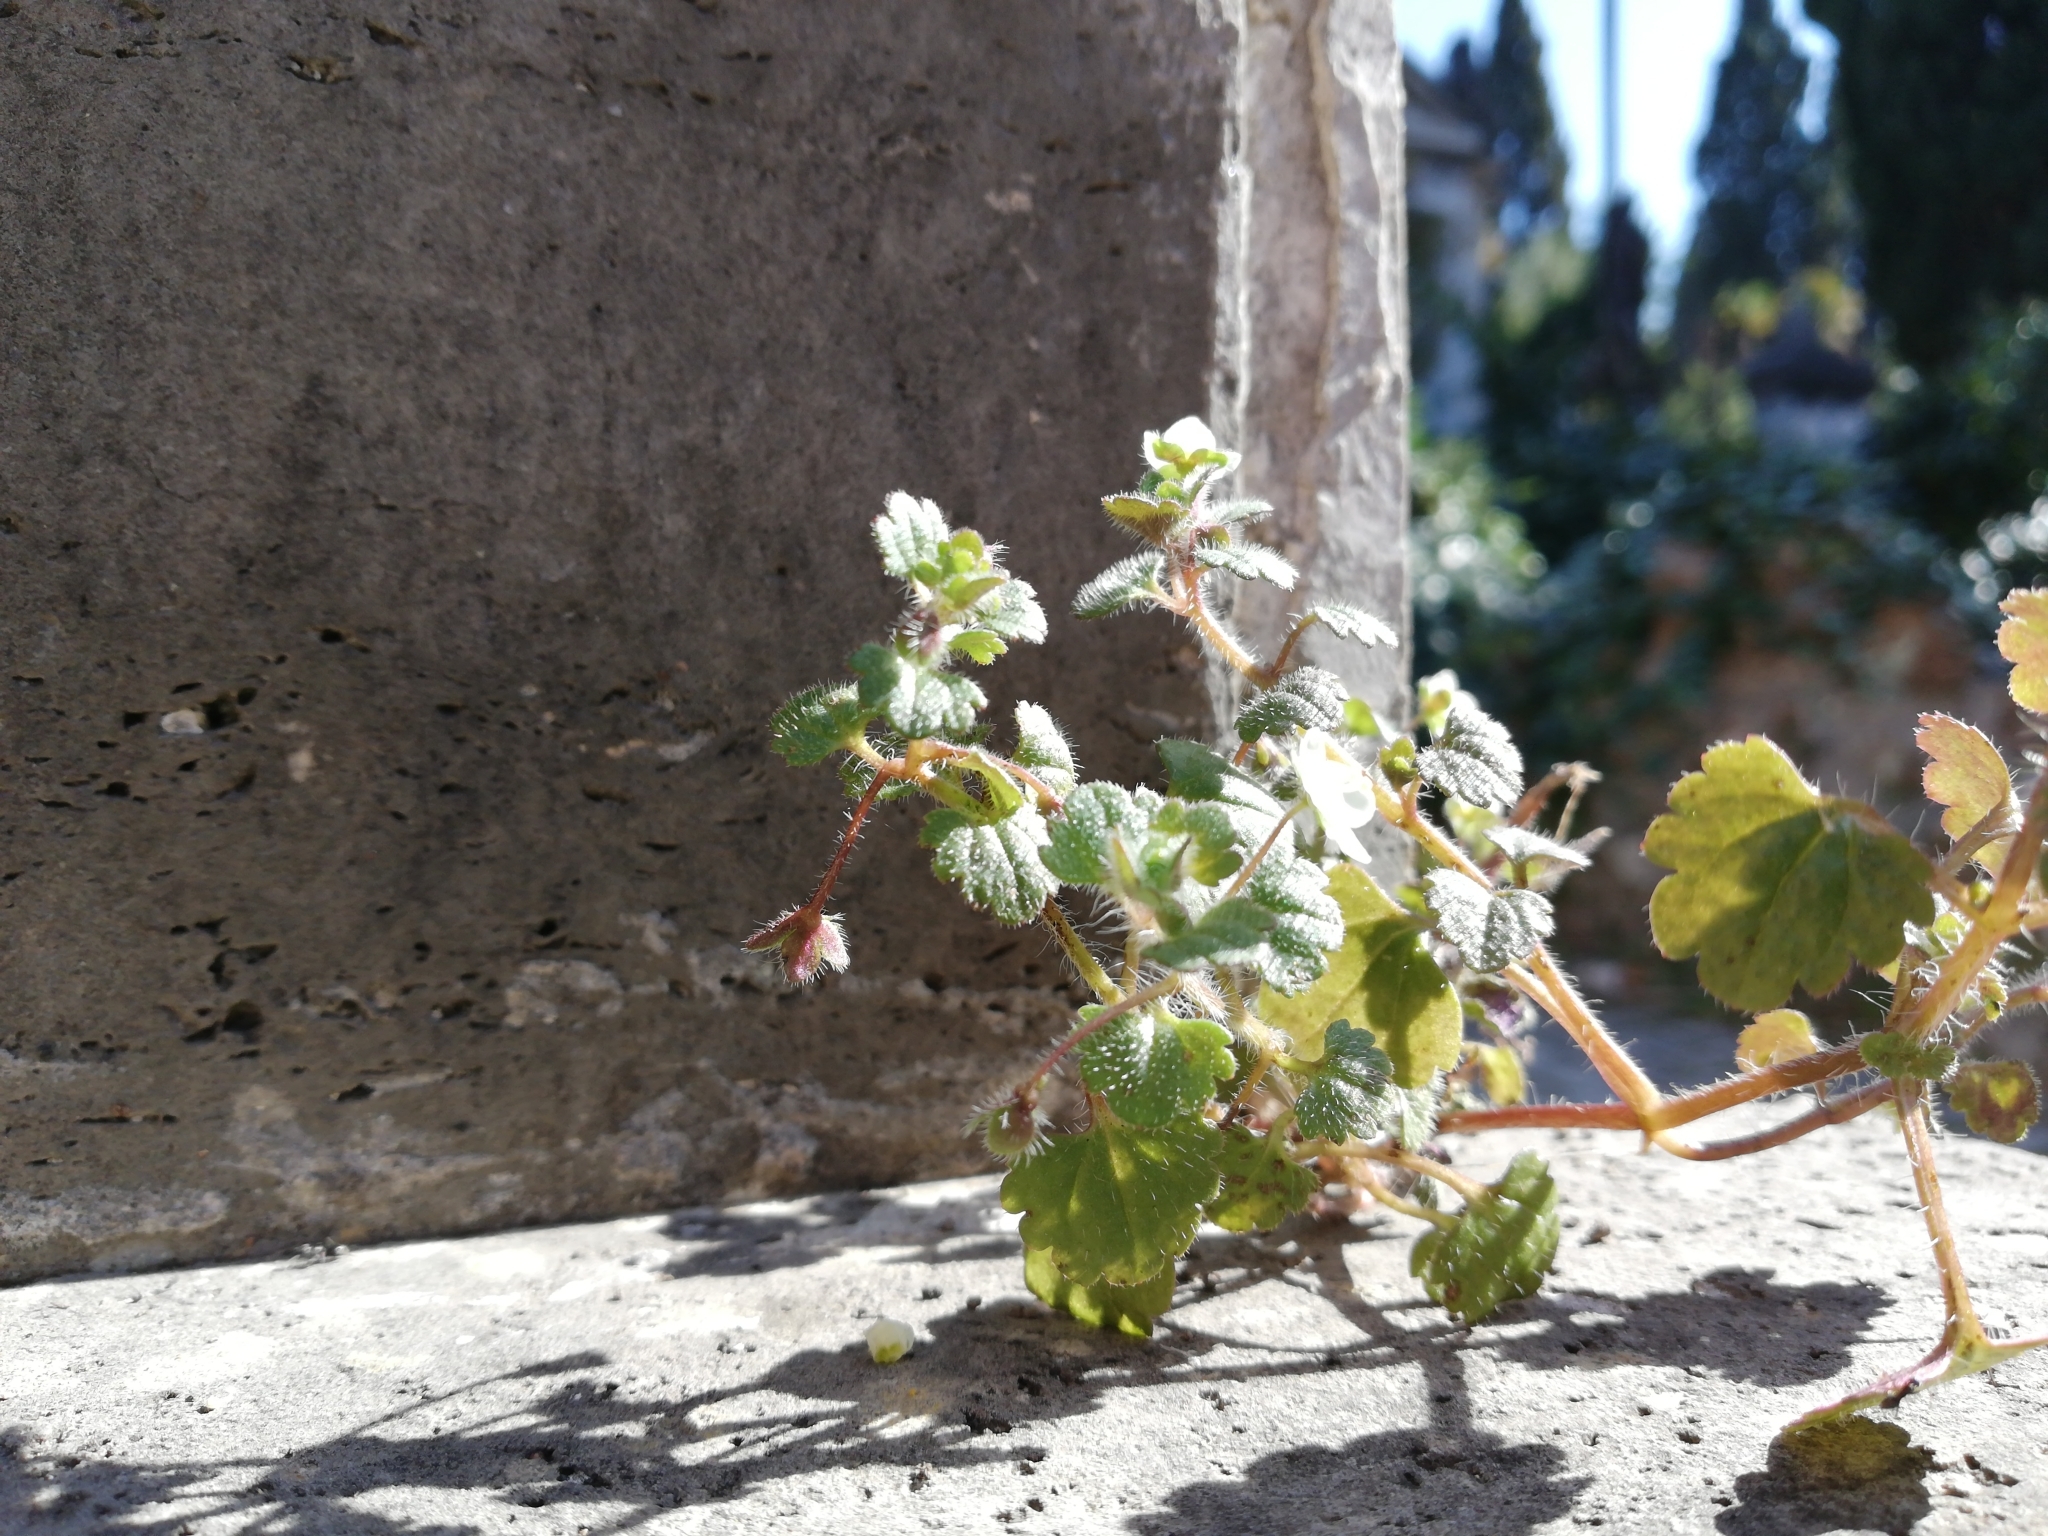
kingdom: Plantae
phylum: Tracheophyta
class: Magnoliopsida
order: Lamiales
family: Plantaginaceae
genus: Veronica
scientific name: Veronica cymbalaria
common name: Pale speedwell
